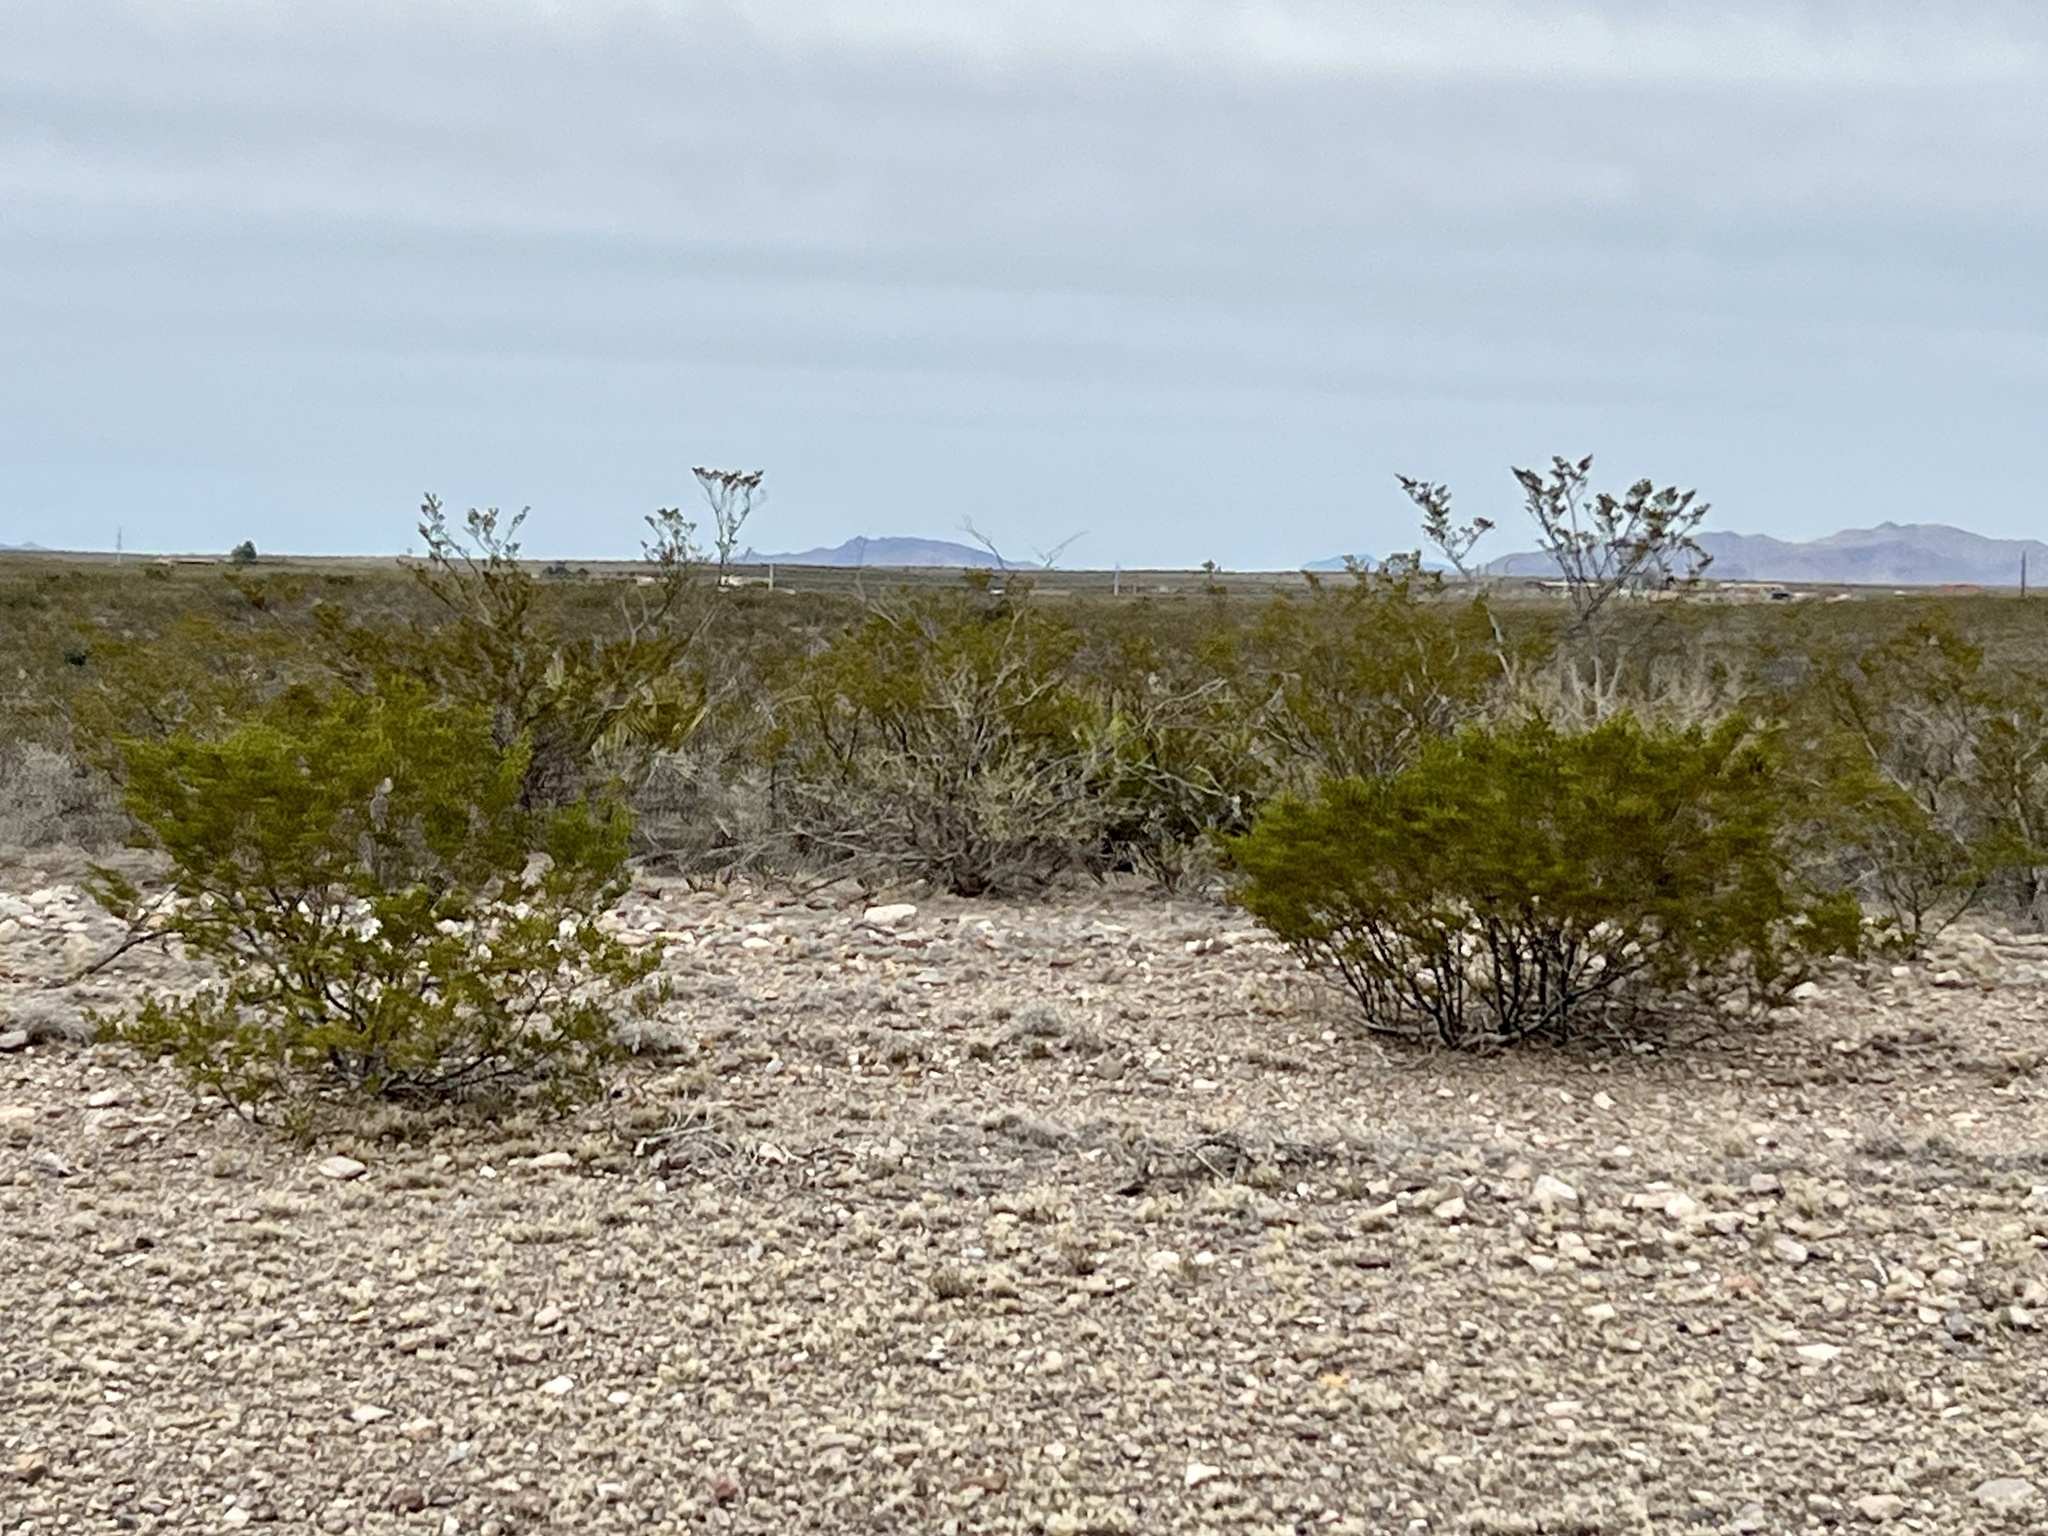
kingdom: Plantae
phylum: Tracheophyta
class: Magnoliopsida
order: Zygophyllales
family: Zygophyllaceae
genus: Larrea
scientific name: Larrea tridentata
